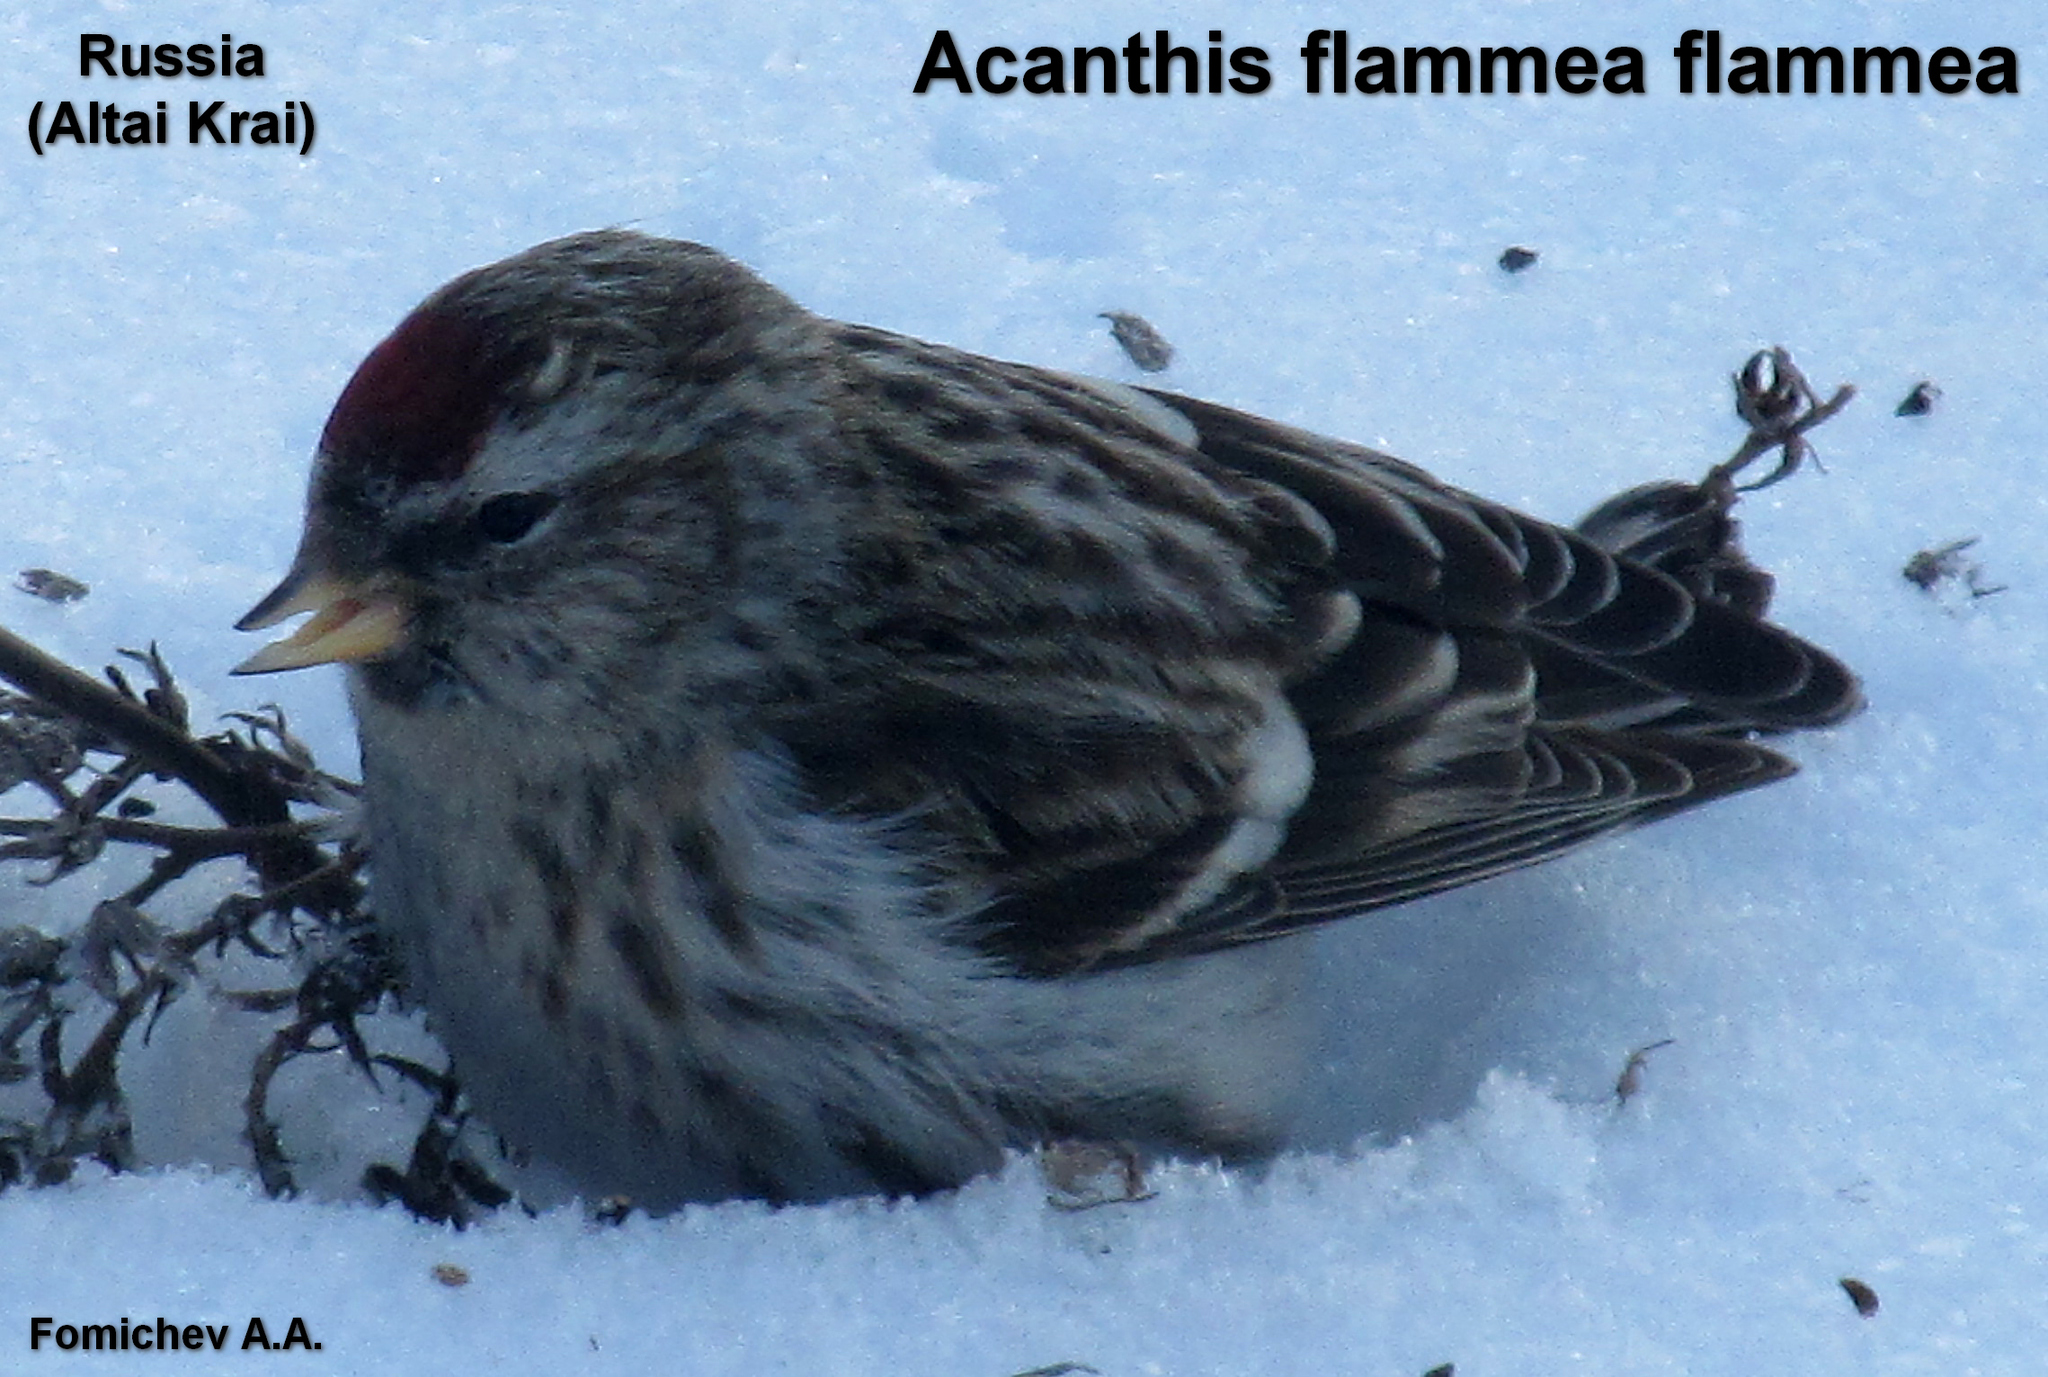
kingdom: Animalia
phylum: Chordata
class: Aves
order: Passeriformes
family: Fringillidae
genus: Acanthis
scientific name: Acanthis flammea
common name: Common redpoll
